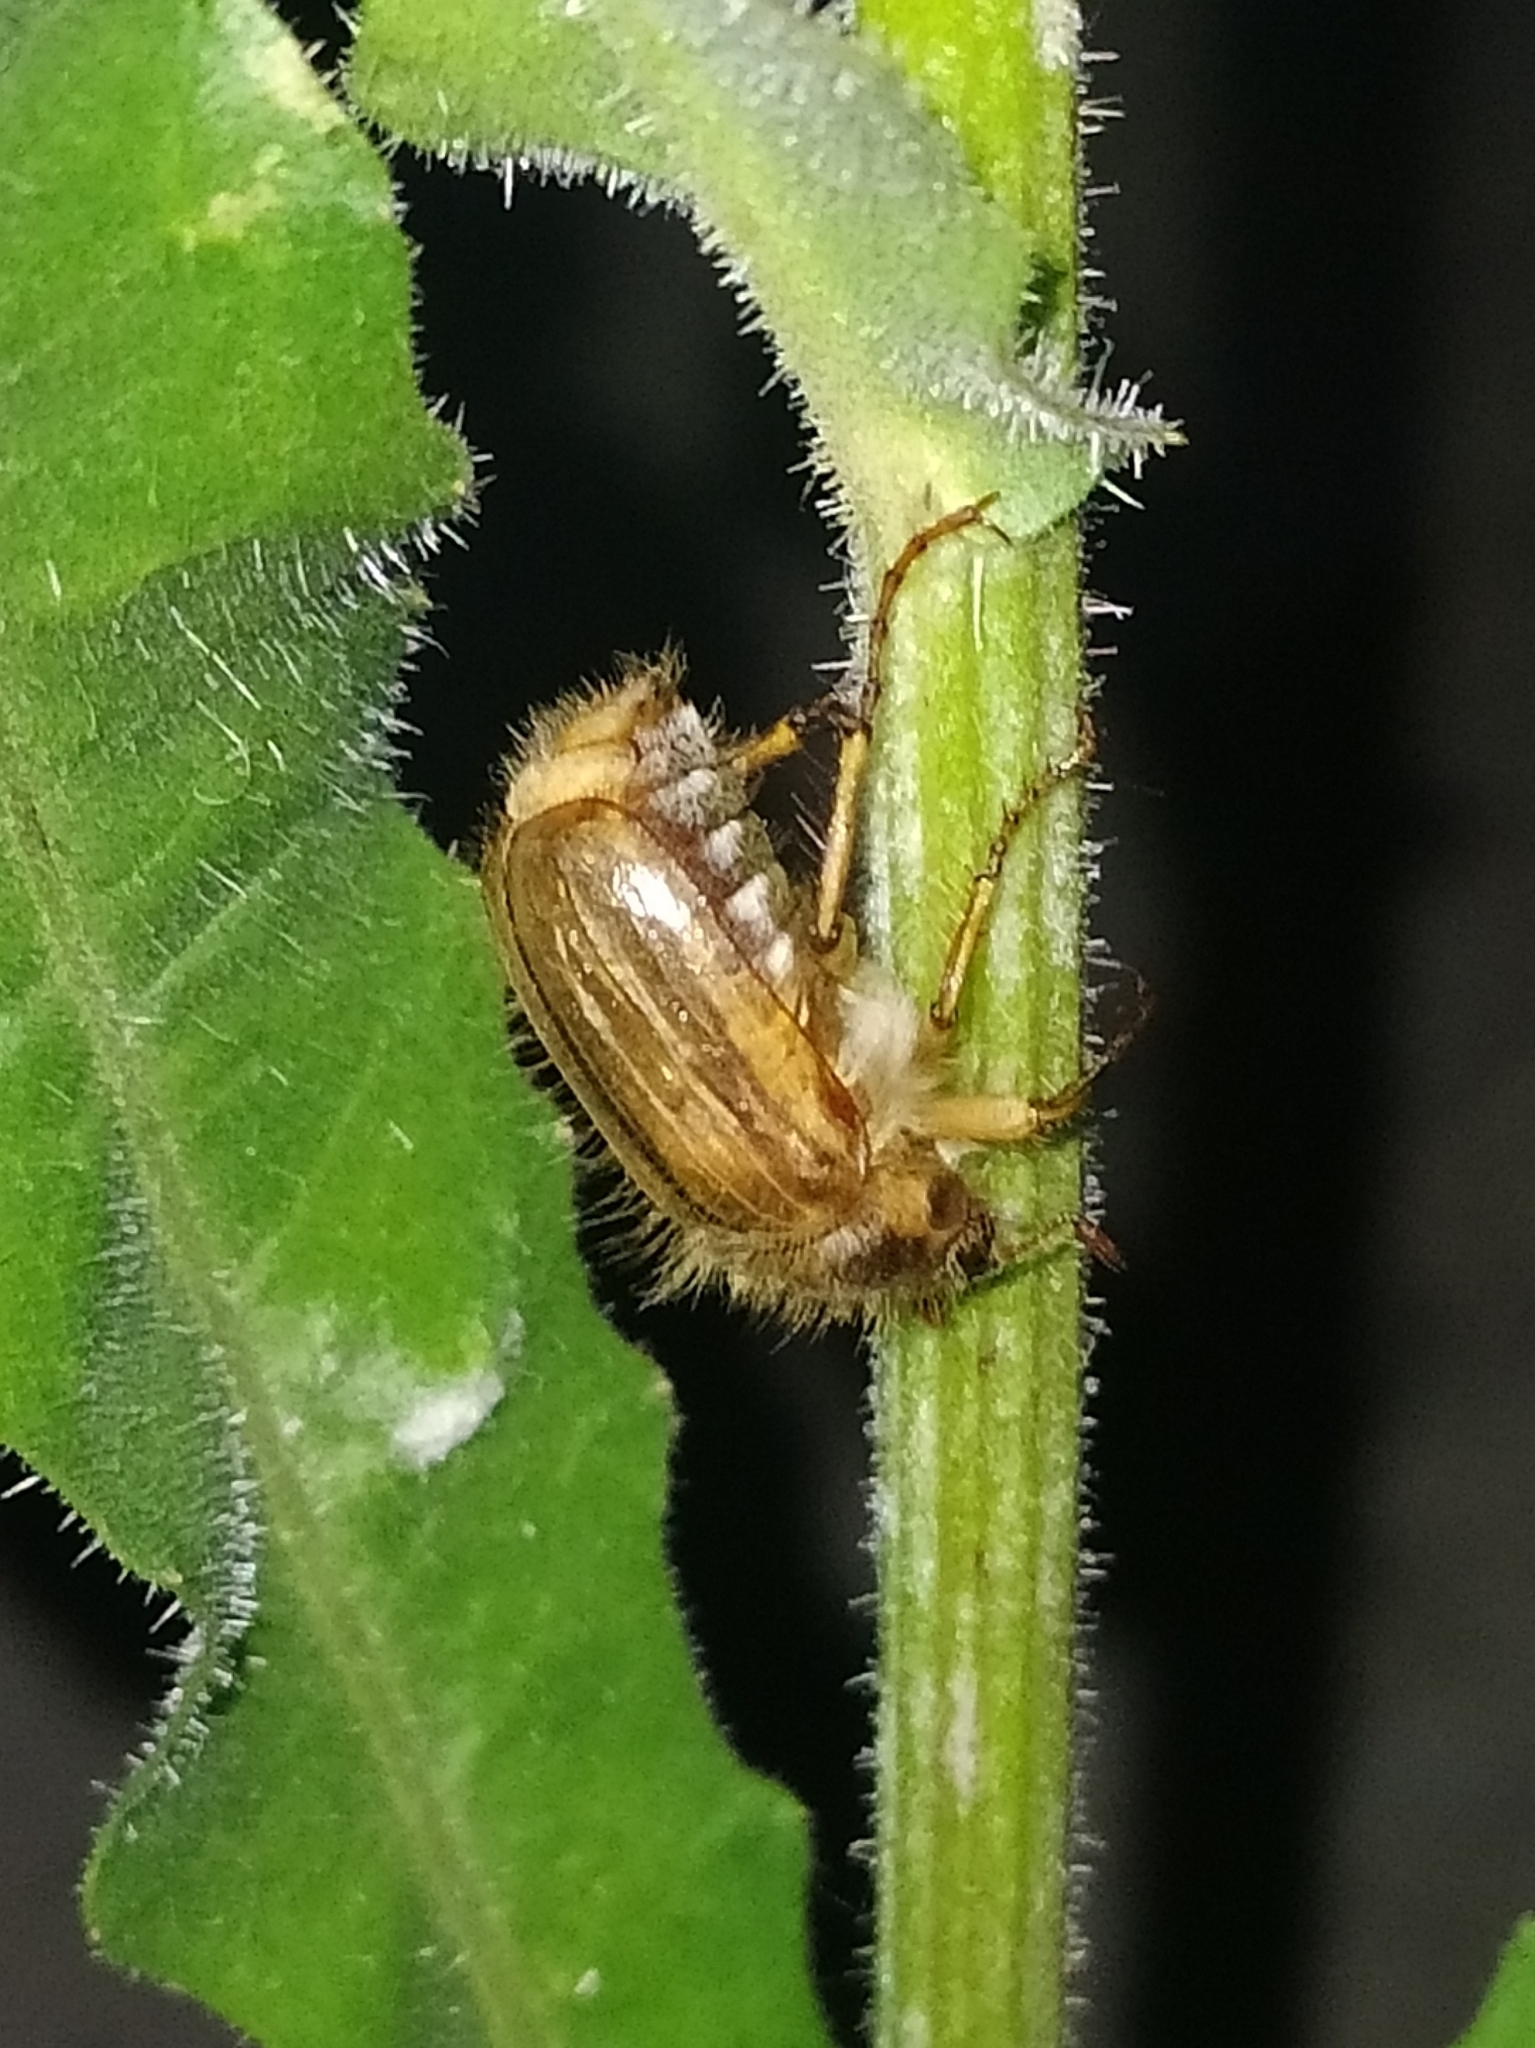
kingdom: Animalia
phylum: Arthropoda
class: Insecta
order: Coleoptera
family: Scarabaeidae
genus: Amphimallon
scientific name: Amphimallon solstitiale
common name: Summer chafer
